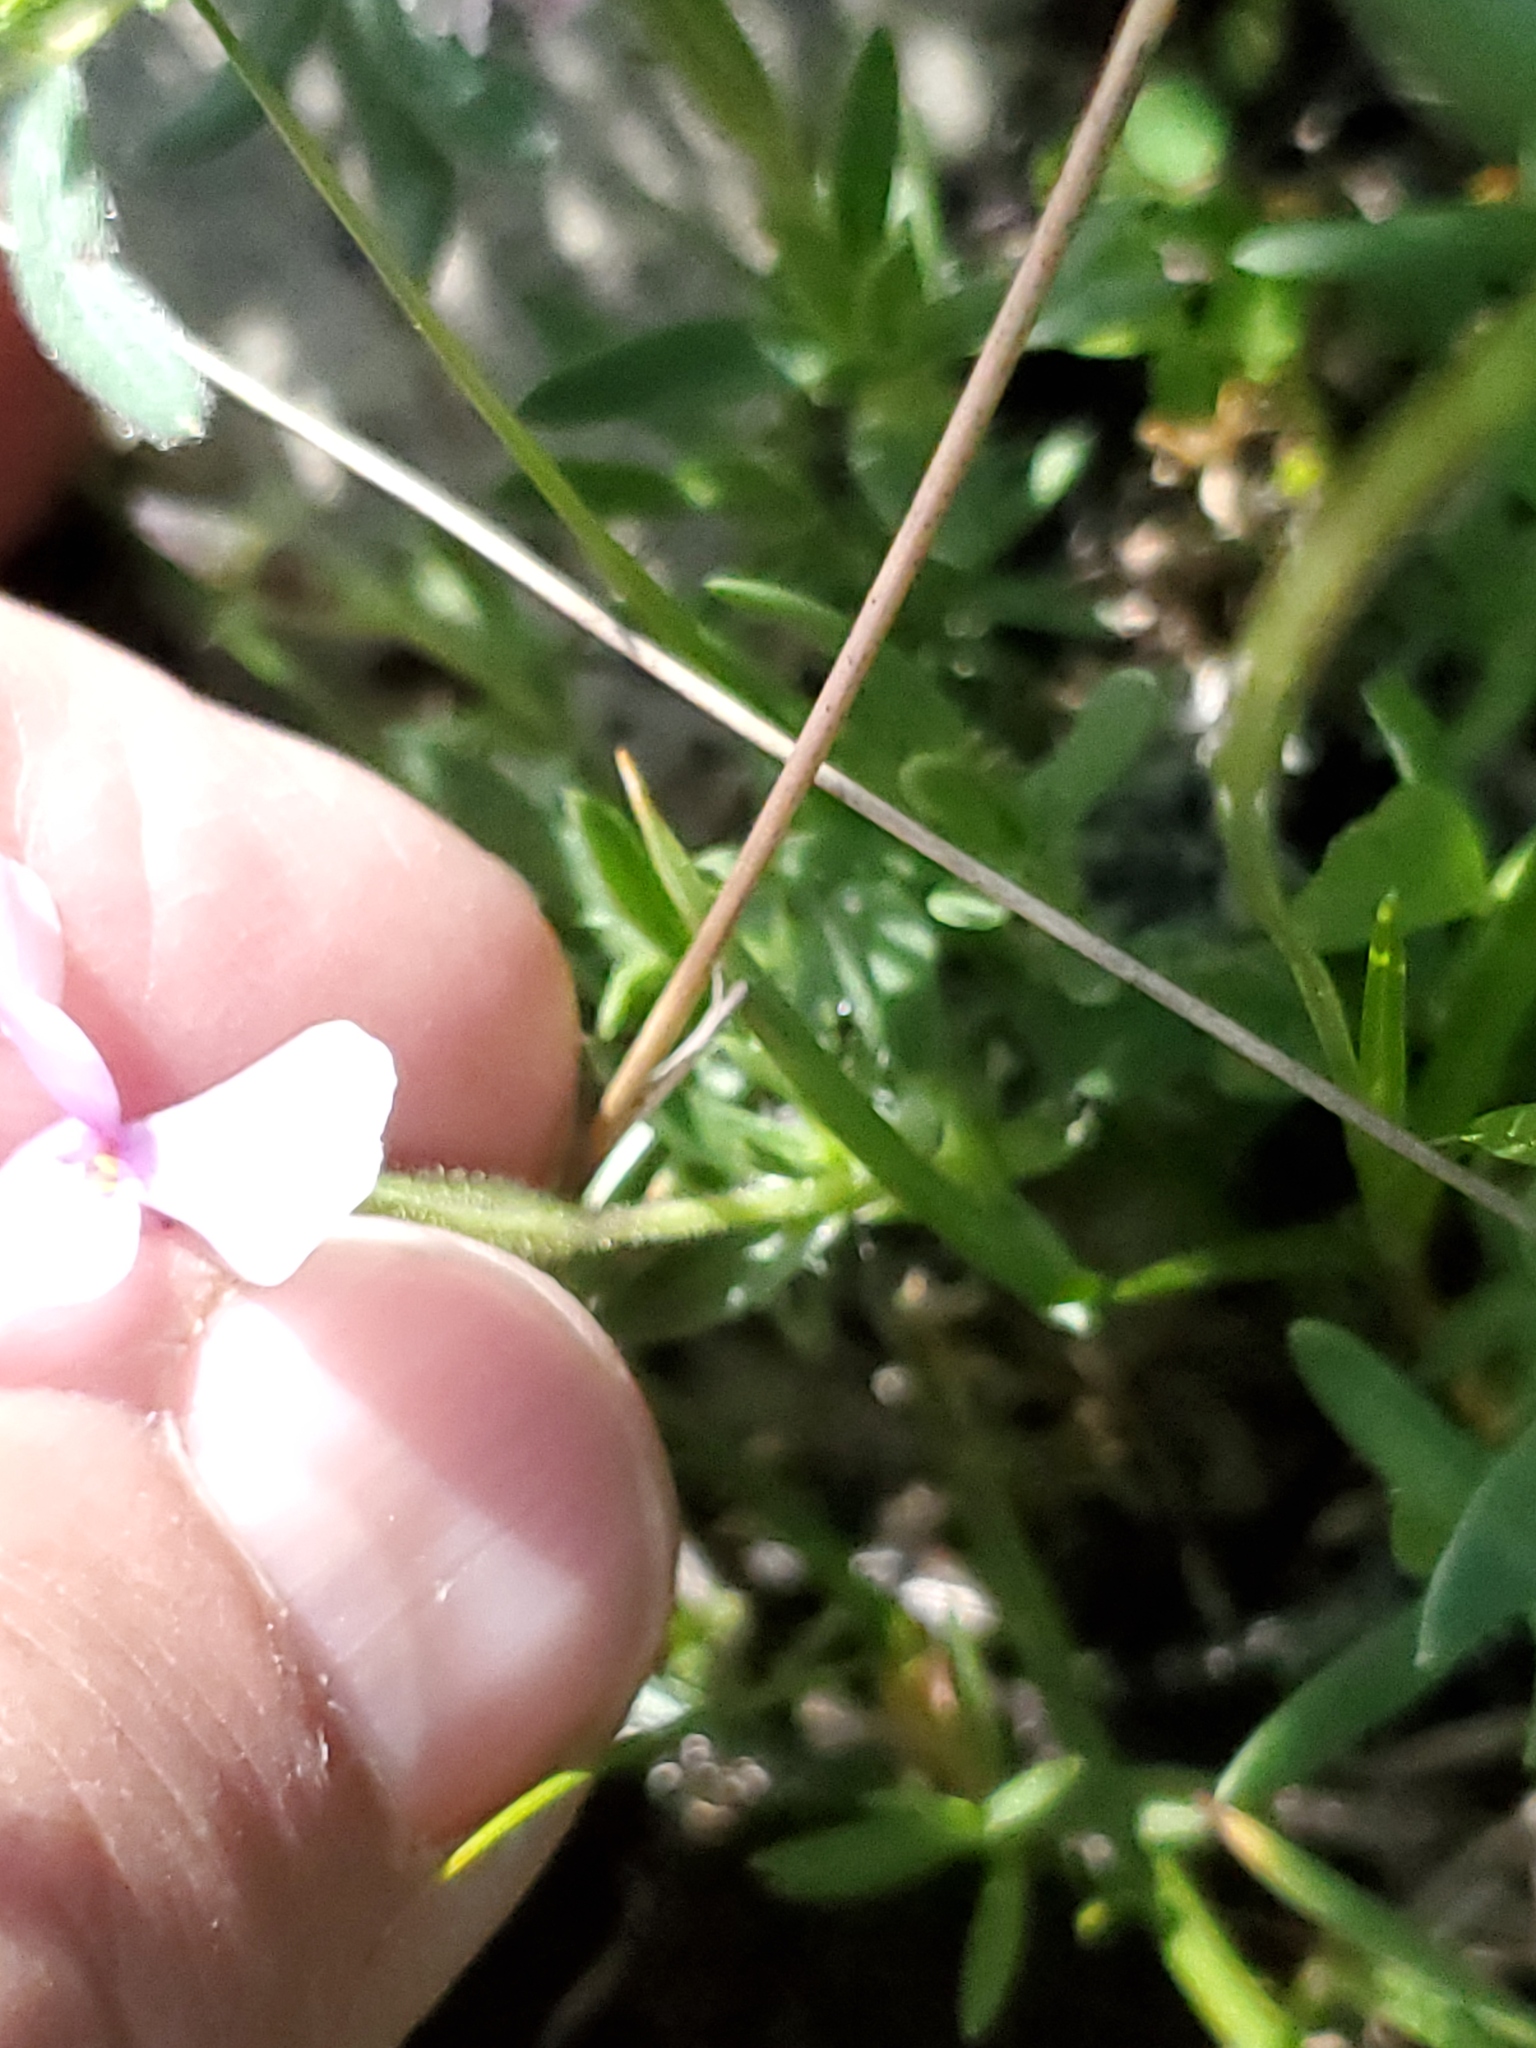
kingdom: Plantae
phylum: Tracheophyta
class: Magnoliopsida
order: Ericales
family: Polemoniaceae
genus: Phlox
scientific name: Phlox alyssifolia
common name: Blue phlox
